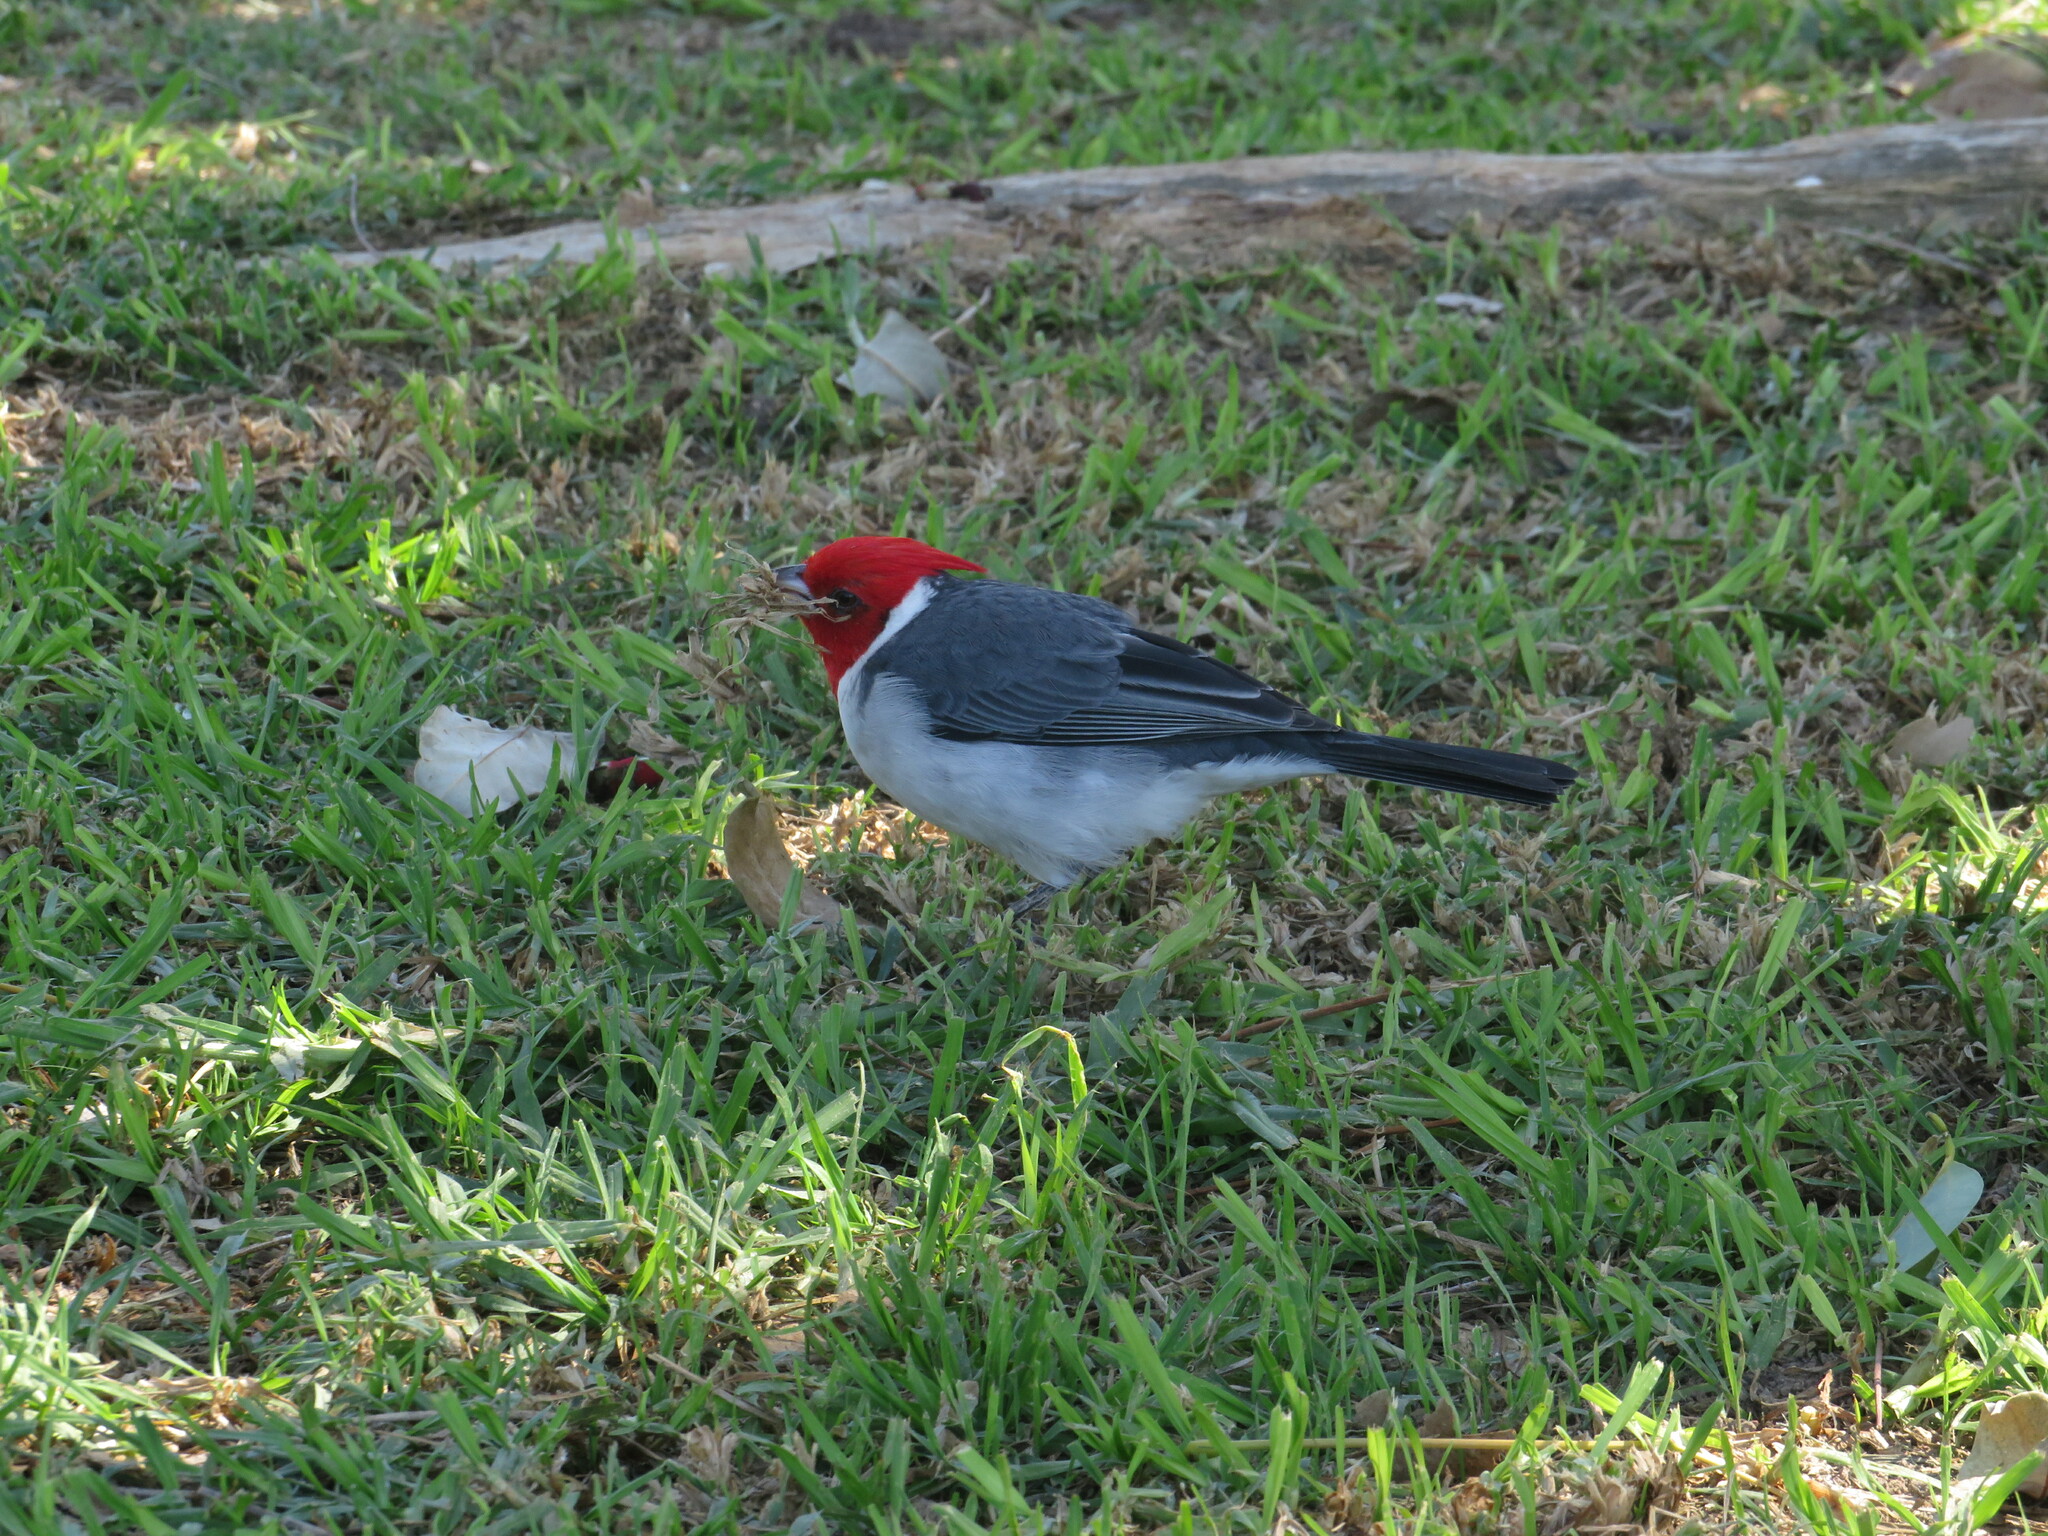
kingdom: Animalia
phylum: Chordata
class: Aves
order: Passeriformes
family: Thraupidae
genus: Paroaria
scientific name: Paroaria coronata
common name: Red-crested cardinal
